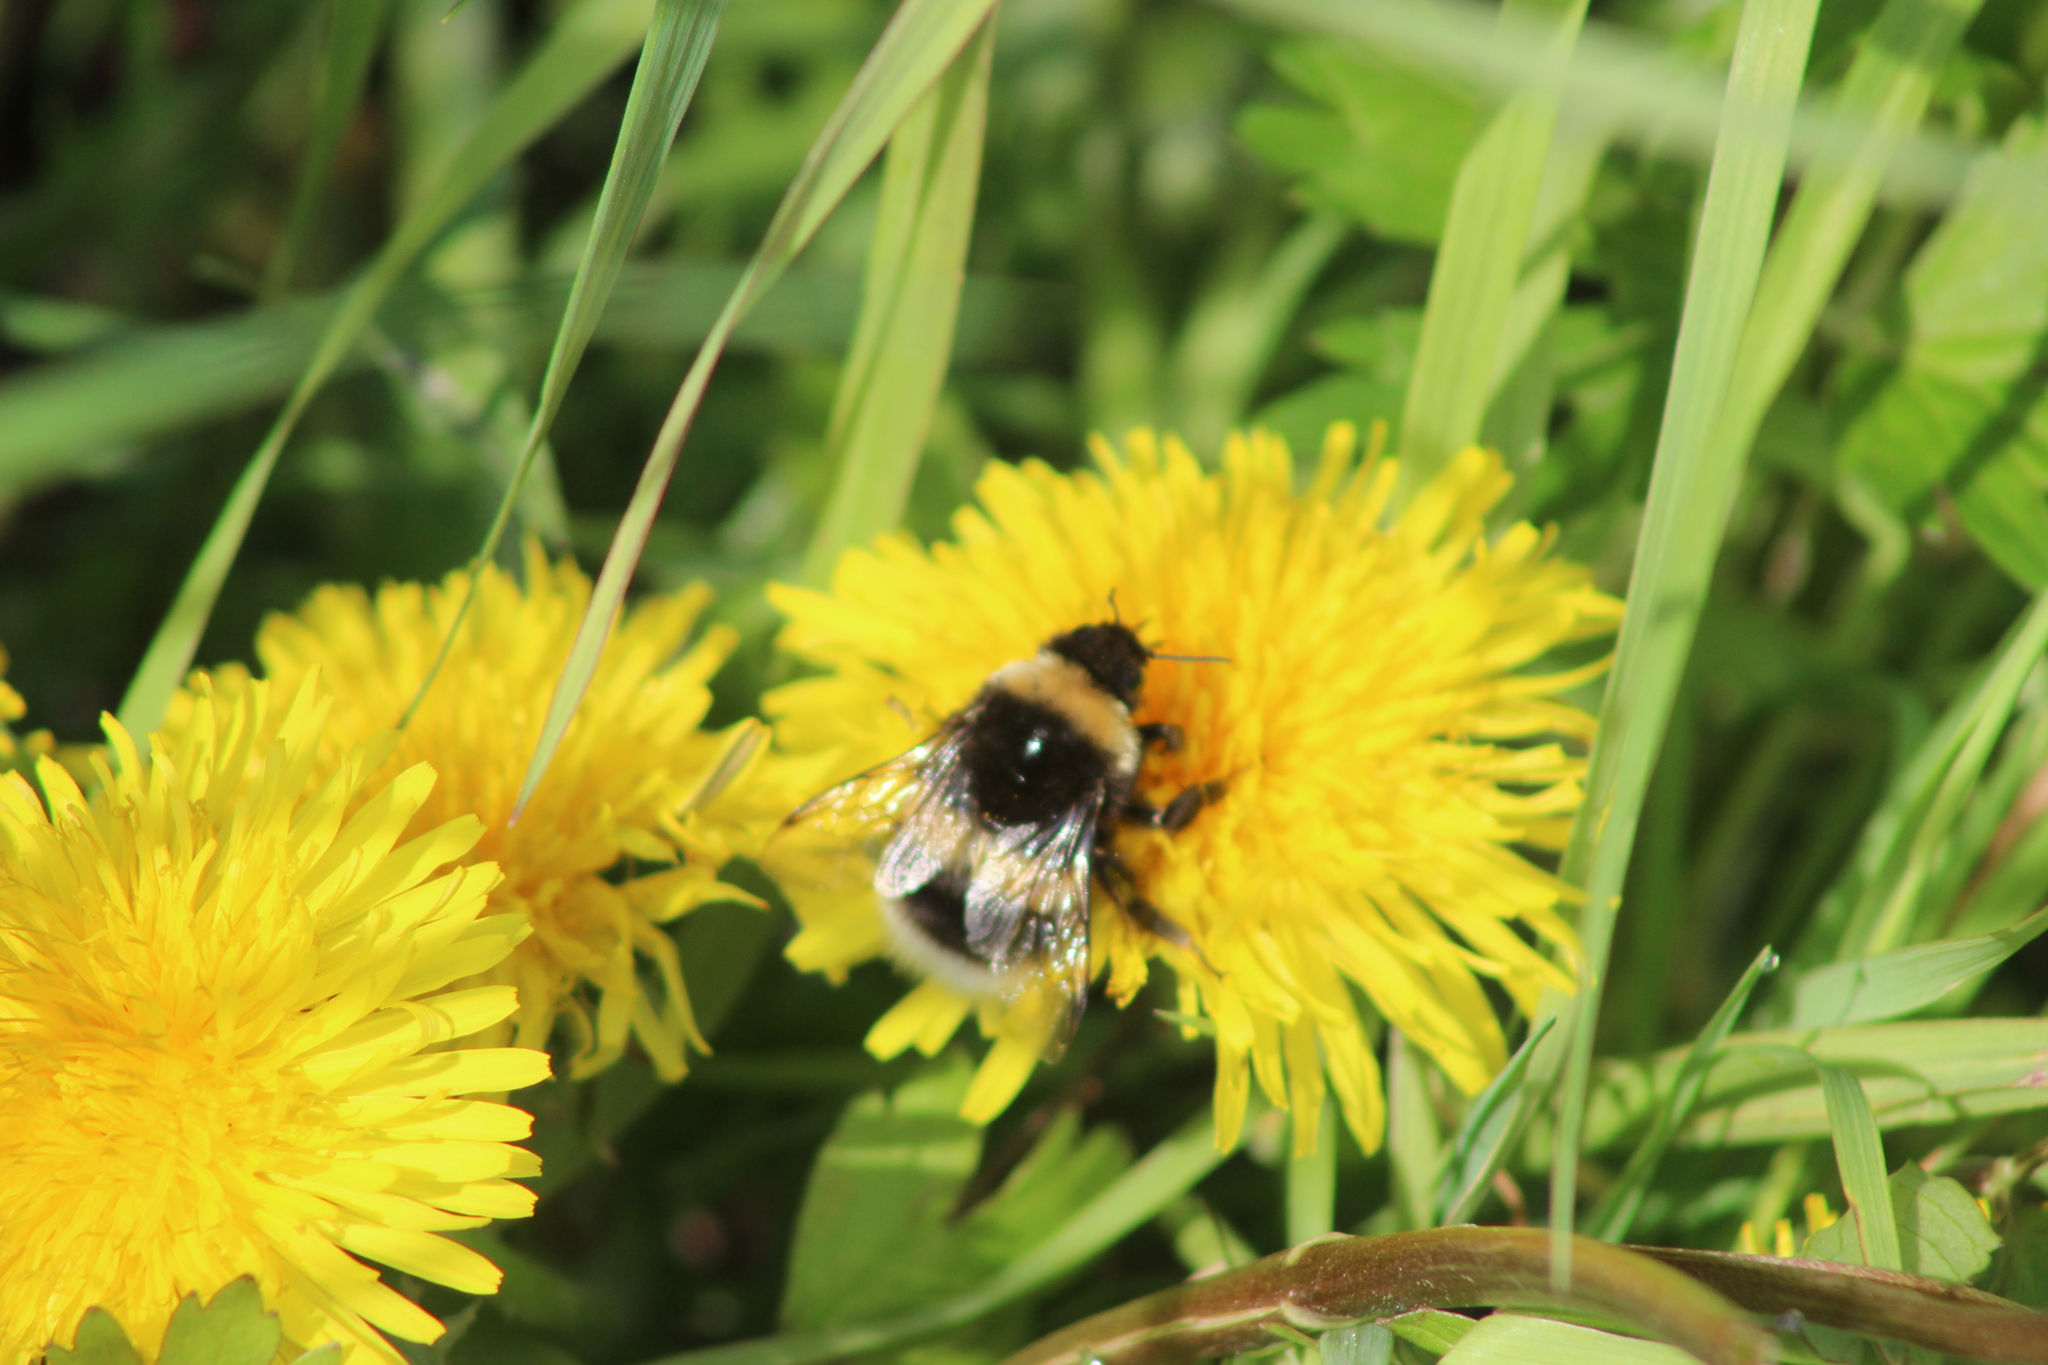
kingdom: Animalia
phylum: Arthropoda
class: Insecta
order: Hymenoptera
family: Apidae
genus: Bombus
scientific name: Bombus
